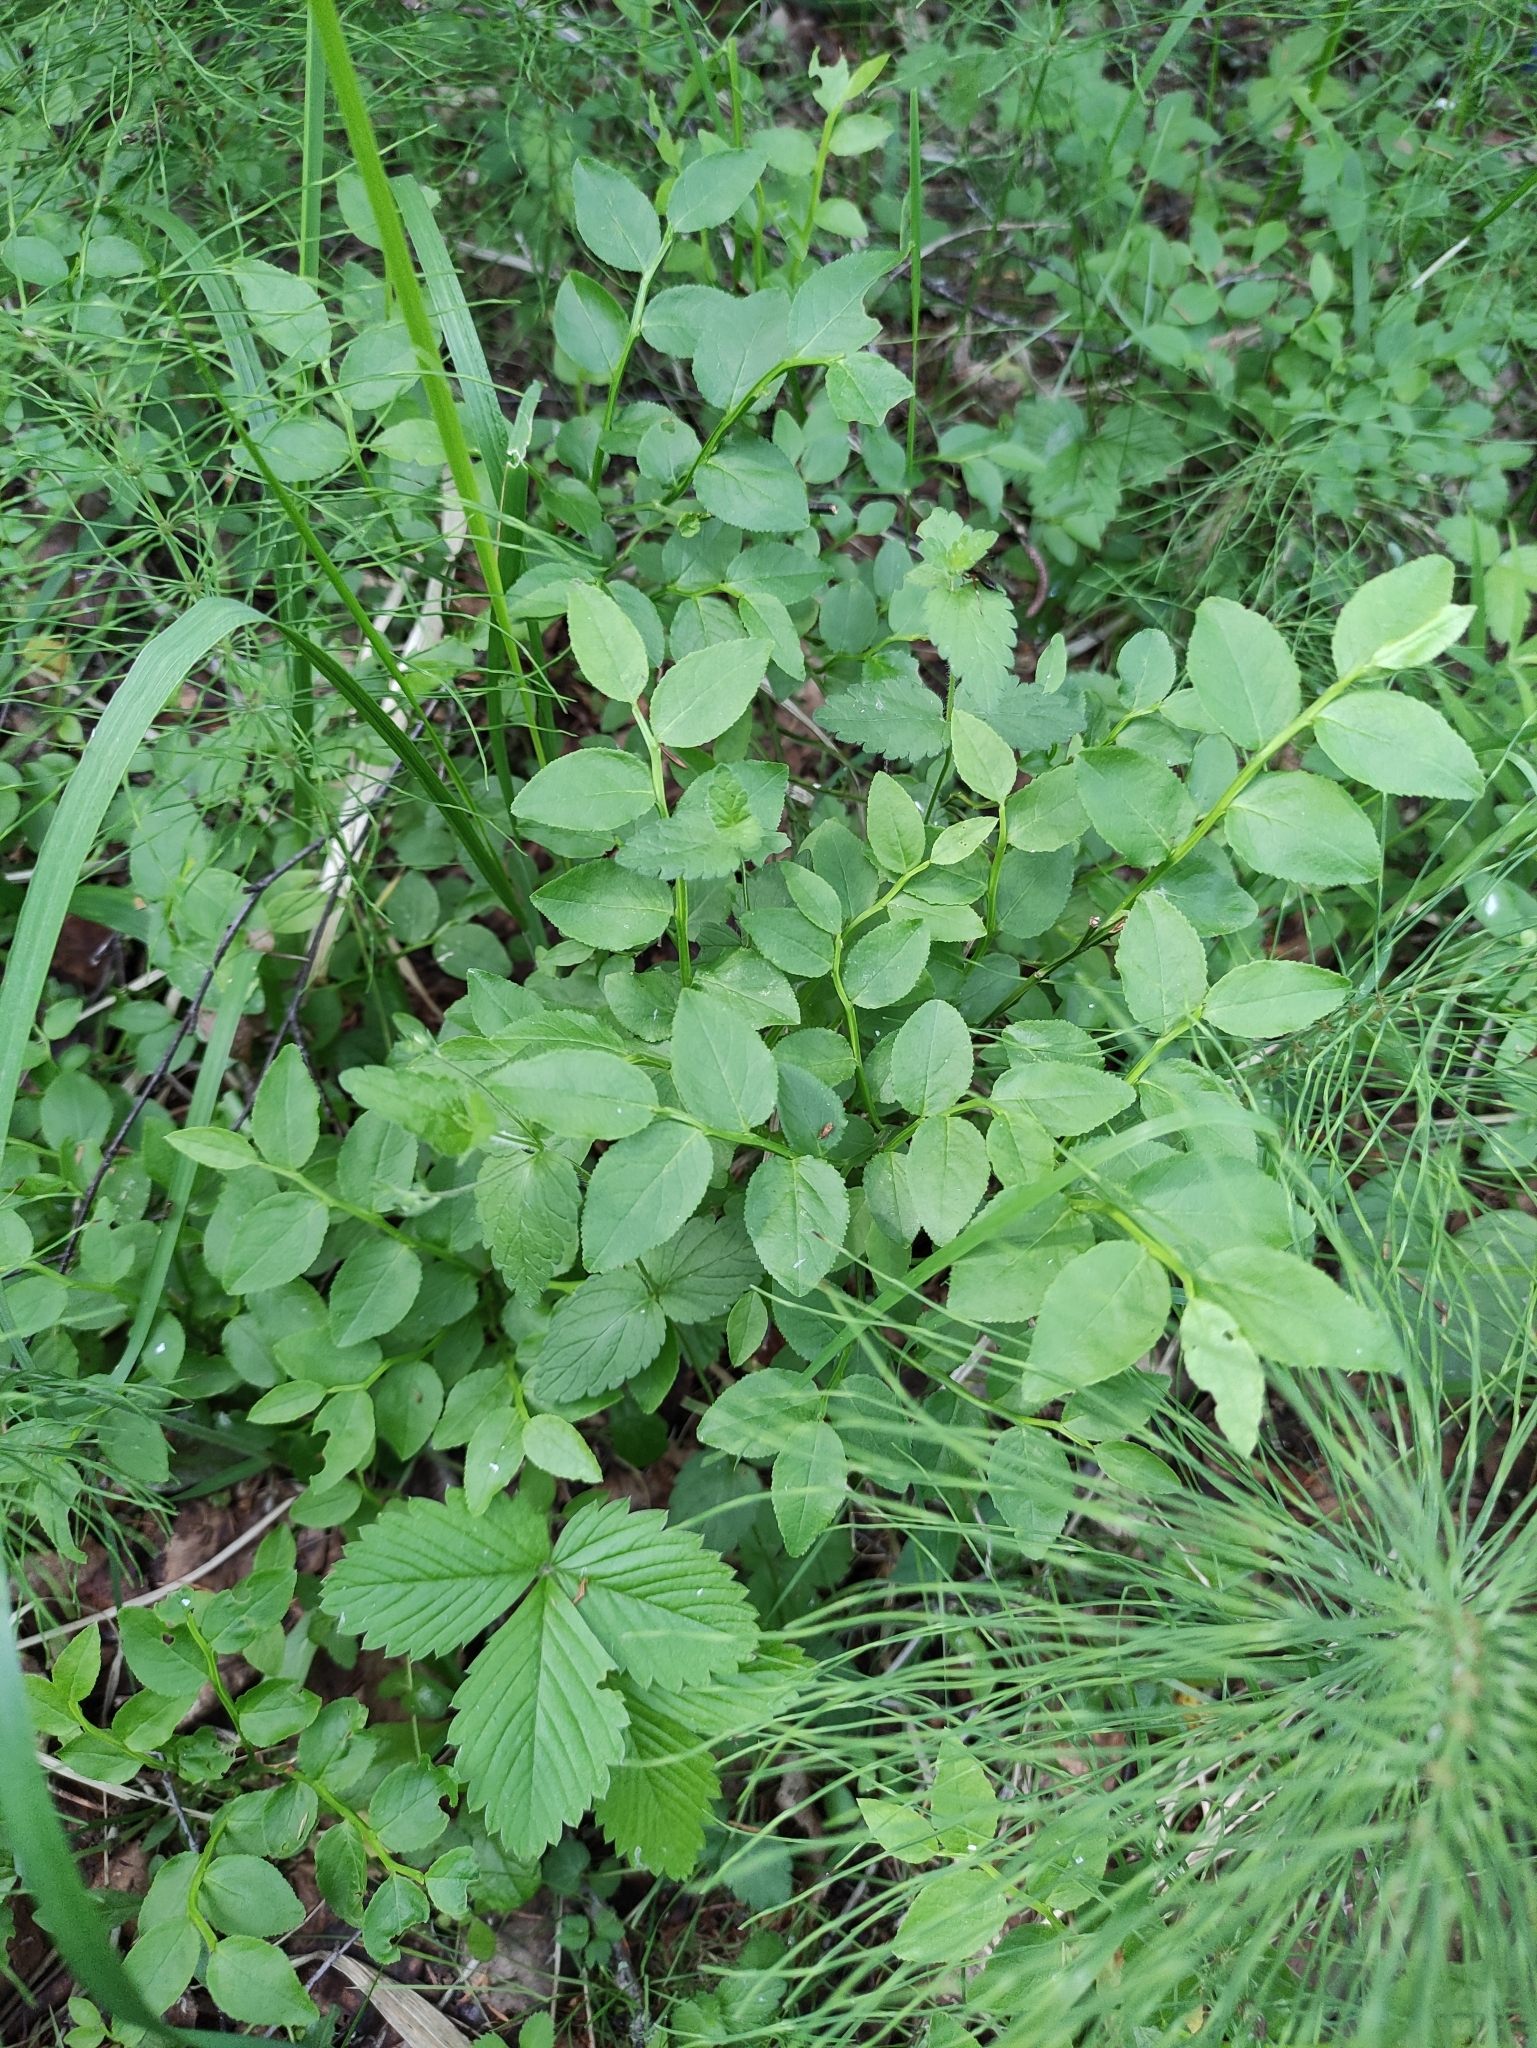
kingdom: Plantae
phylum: Tracheophyta
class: Magnoliopsida
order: Ericales
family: Ericaceae
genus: Vaccinium
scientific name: Vaccinium myrtillus
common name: Bilberry
